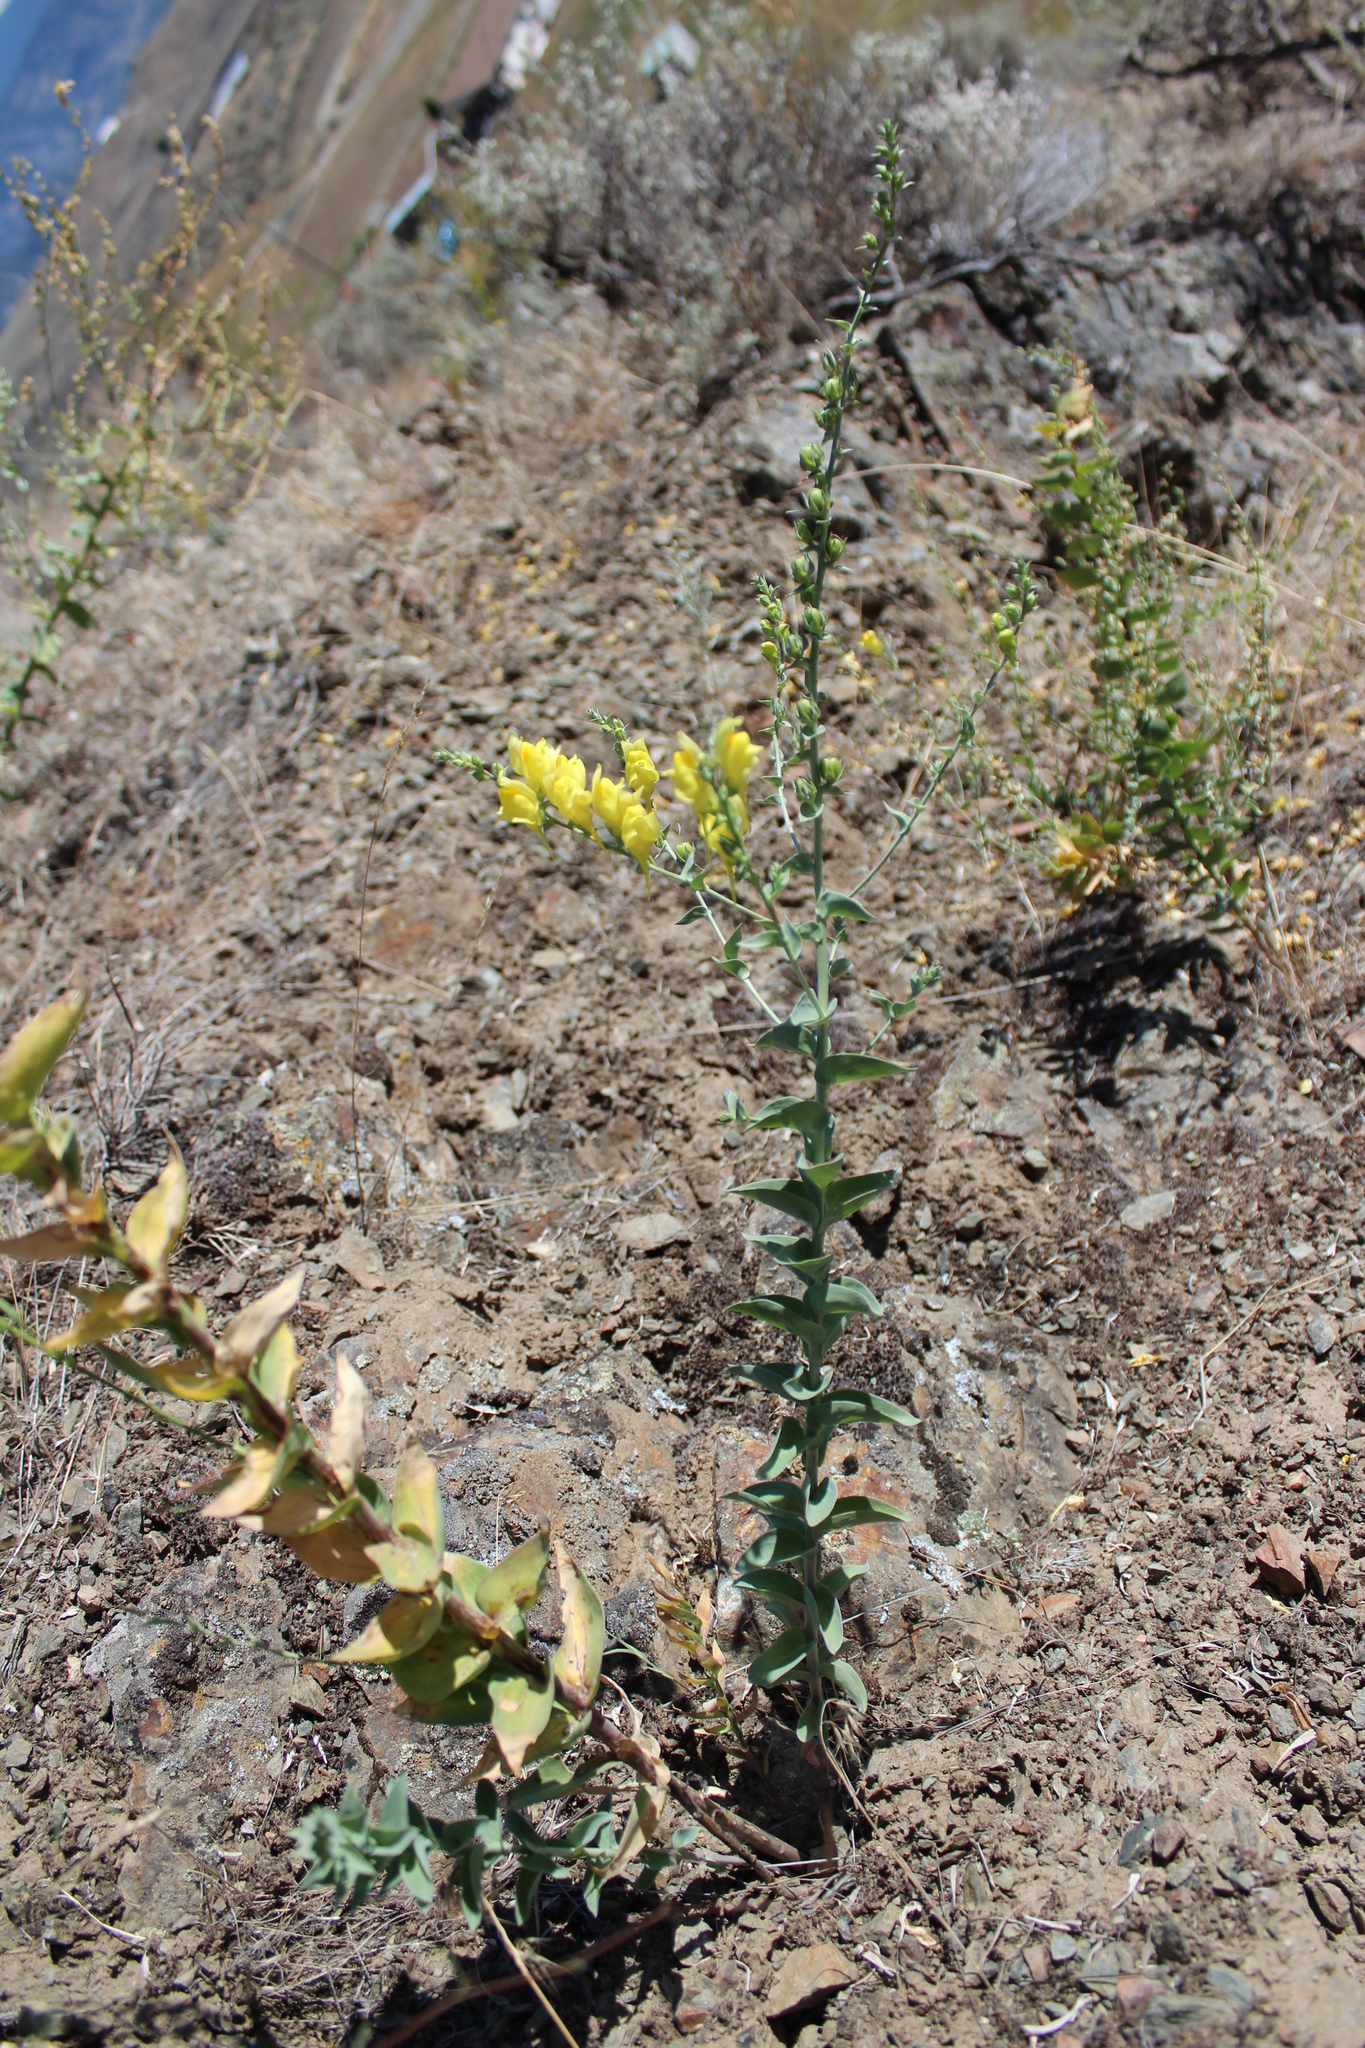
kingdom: Plantae
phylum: Tracheophyta
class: Magnoliopsida
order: Lamiales
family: Plantaginaceae
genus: Linaria
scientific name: Linaria dalmatica
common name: Dalmatian toadflax
